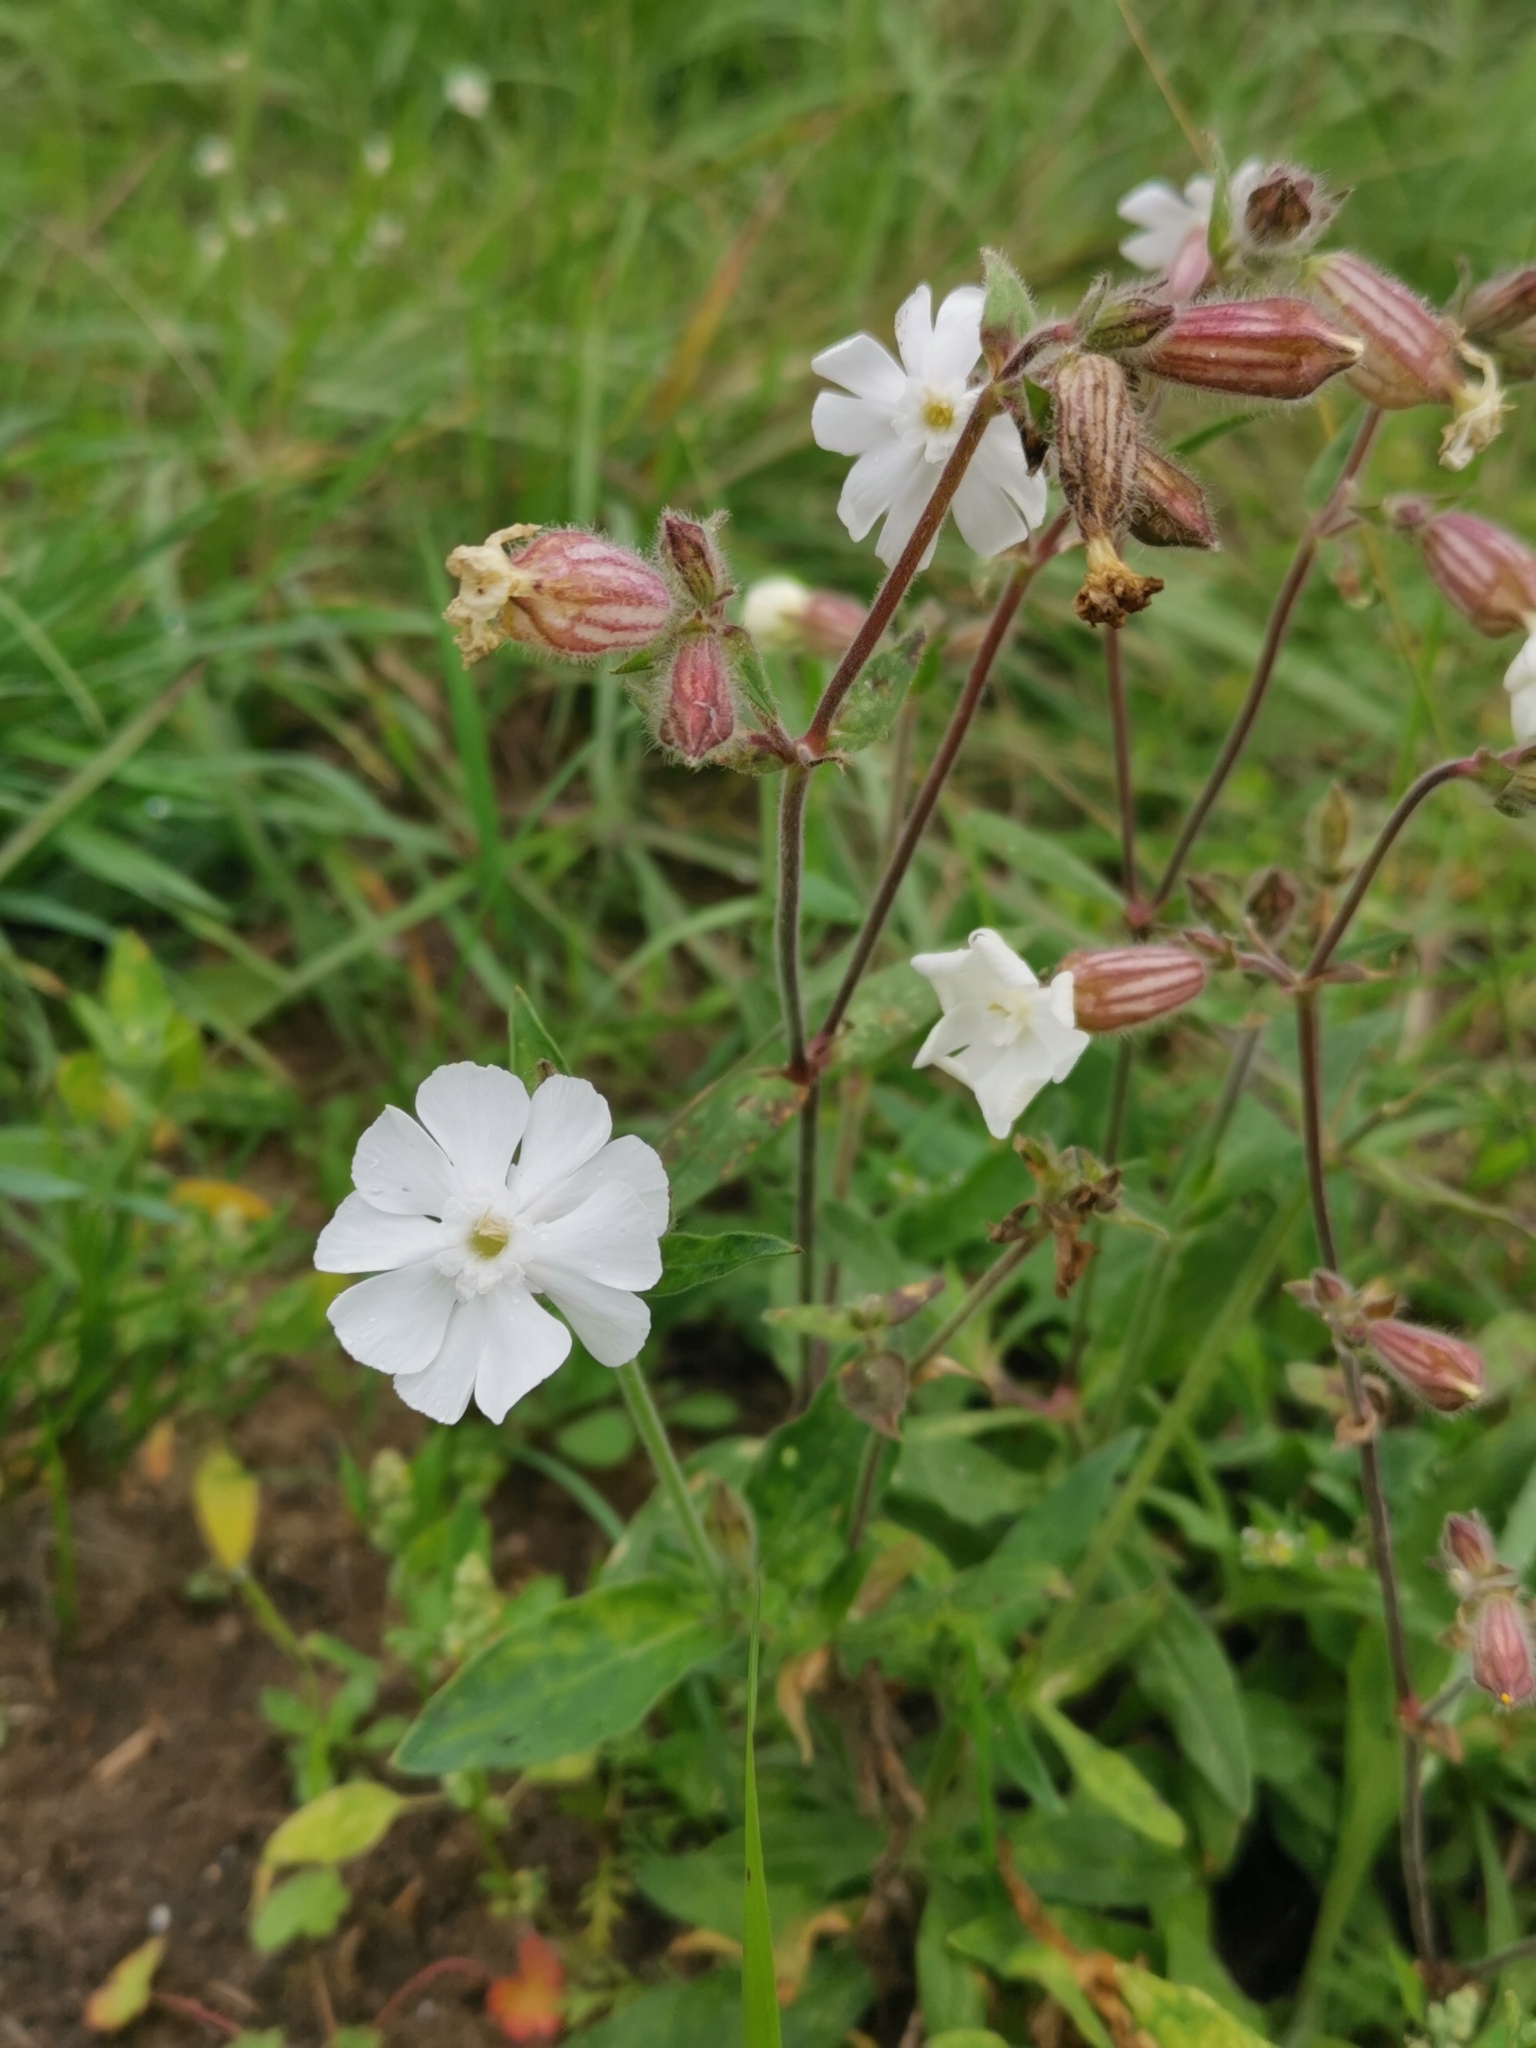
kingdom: Plantae
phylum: Tracheophyta
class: Magnoliopsida
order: Caryophyllales
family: Caryophyllaceae
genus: Silene
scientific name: Silene latifolia
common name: White campion
